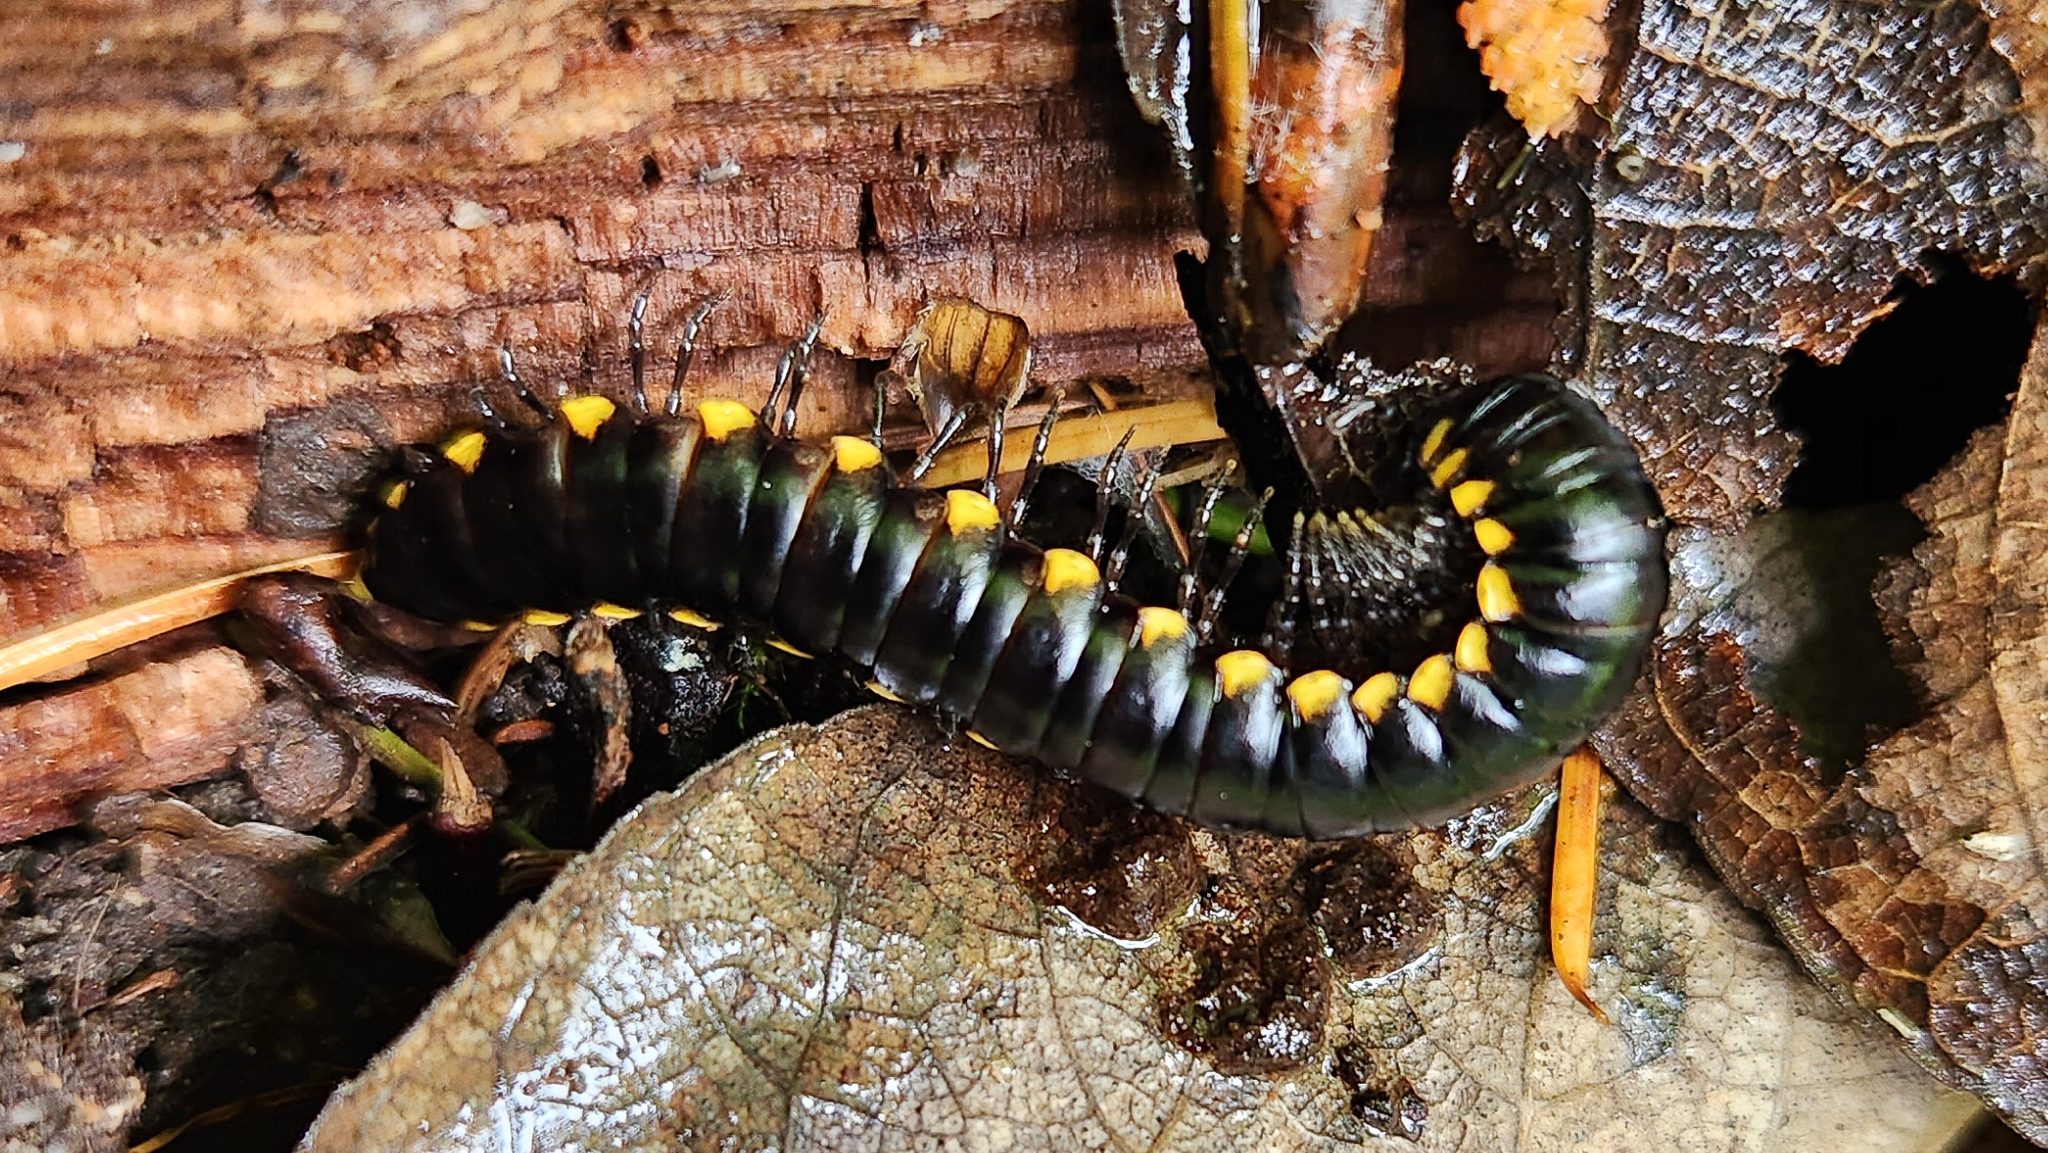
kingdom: Animalia
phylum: Arthropoda
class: Diplopoda
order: Polydesmida
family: Xystodesmidae
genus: Harpaphe
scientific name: Harpaphe haydeniana
